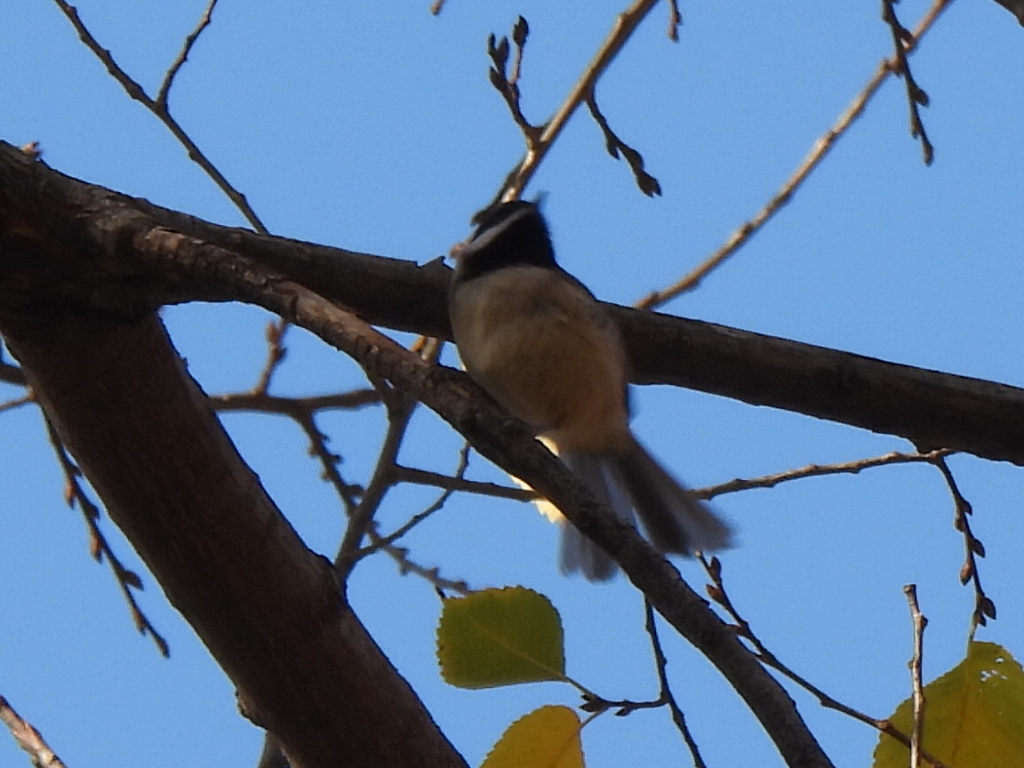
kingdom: Animalia
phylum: Chordata
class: Aves
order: Passeriformes
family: Paridae
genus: Poecile
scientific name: Poecile carolinensis
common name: Carolina chickadee
